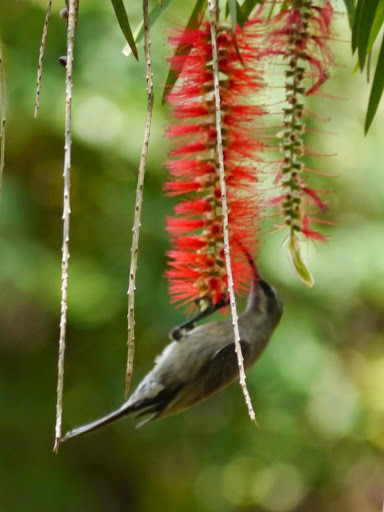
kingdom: Animalia
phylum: Chordata
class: Aves
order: Passeriformes
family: Nectariniidae
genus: Nectarinia
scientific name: Nectarinia tacazze
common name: Tacazze sunbird
